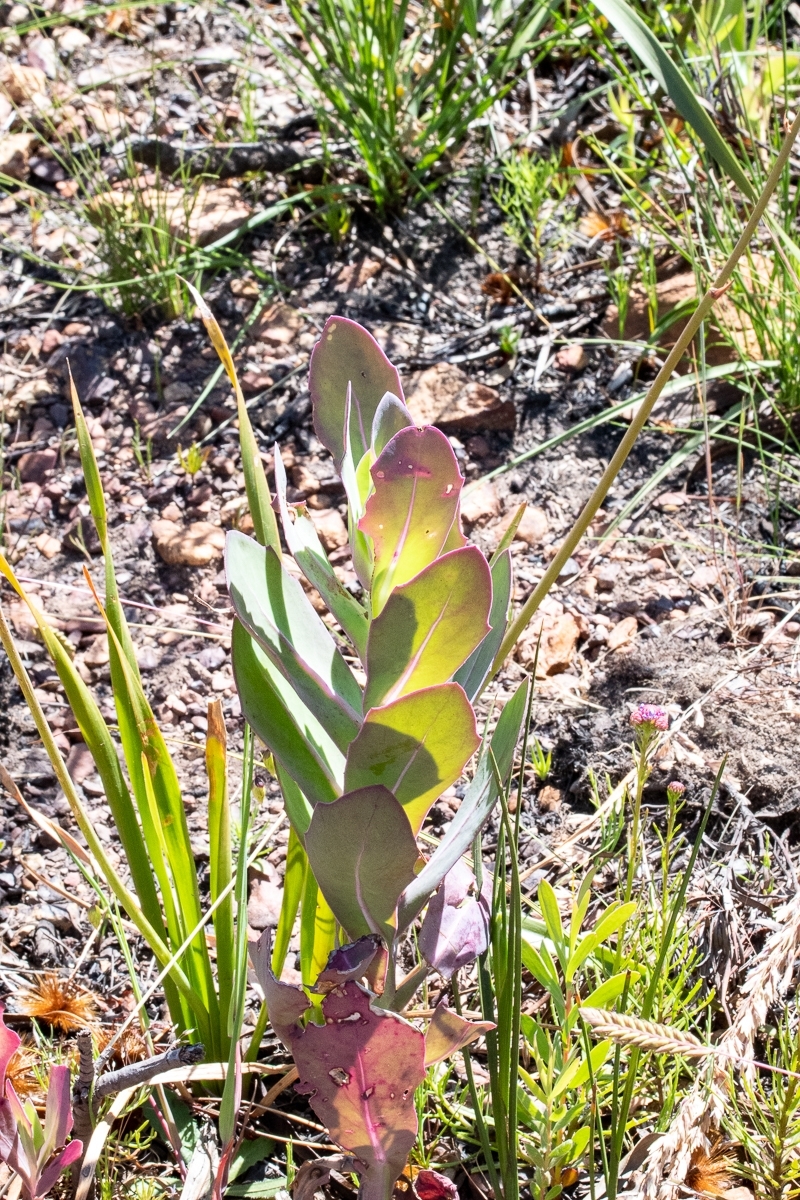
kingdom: Plantae
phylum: Tracheophyta
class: Magnoliopsida
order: Asterales
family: Asteraceae
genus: Othonna
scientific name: Othonna quinquedentata
